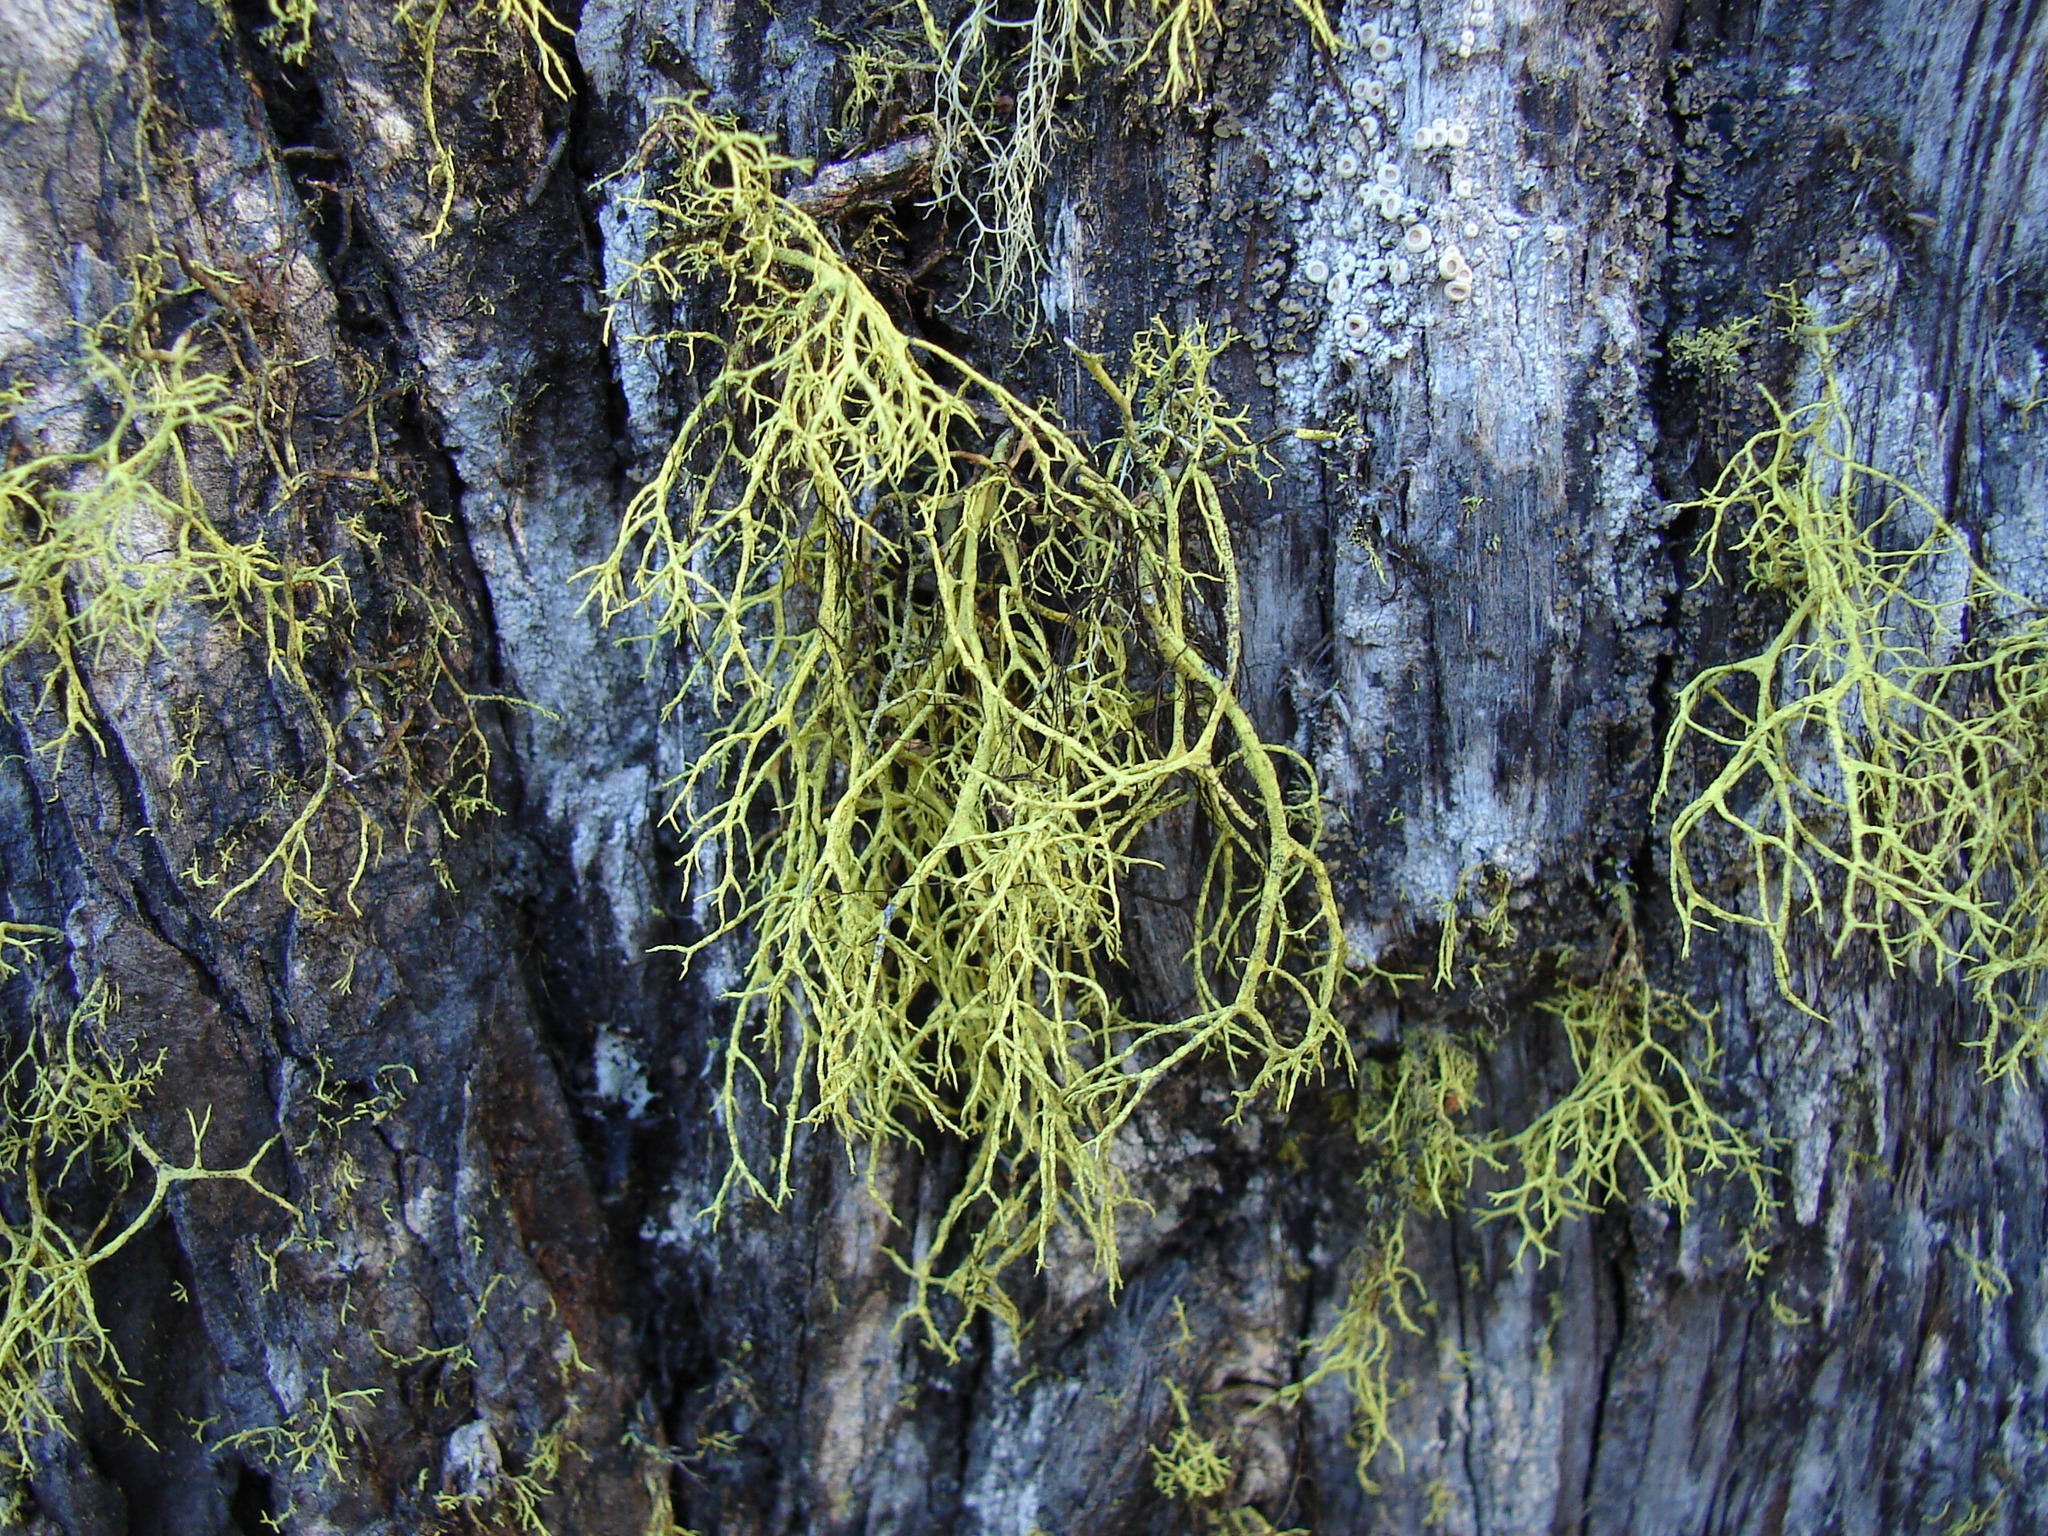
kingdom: Fungi
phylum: Ascomycota
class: Lecanoromycetes
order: Lecanorales
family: Parmeliaceae
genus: Letharia
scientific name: Letharia vulpina
